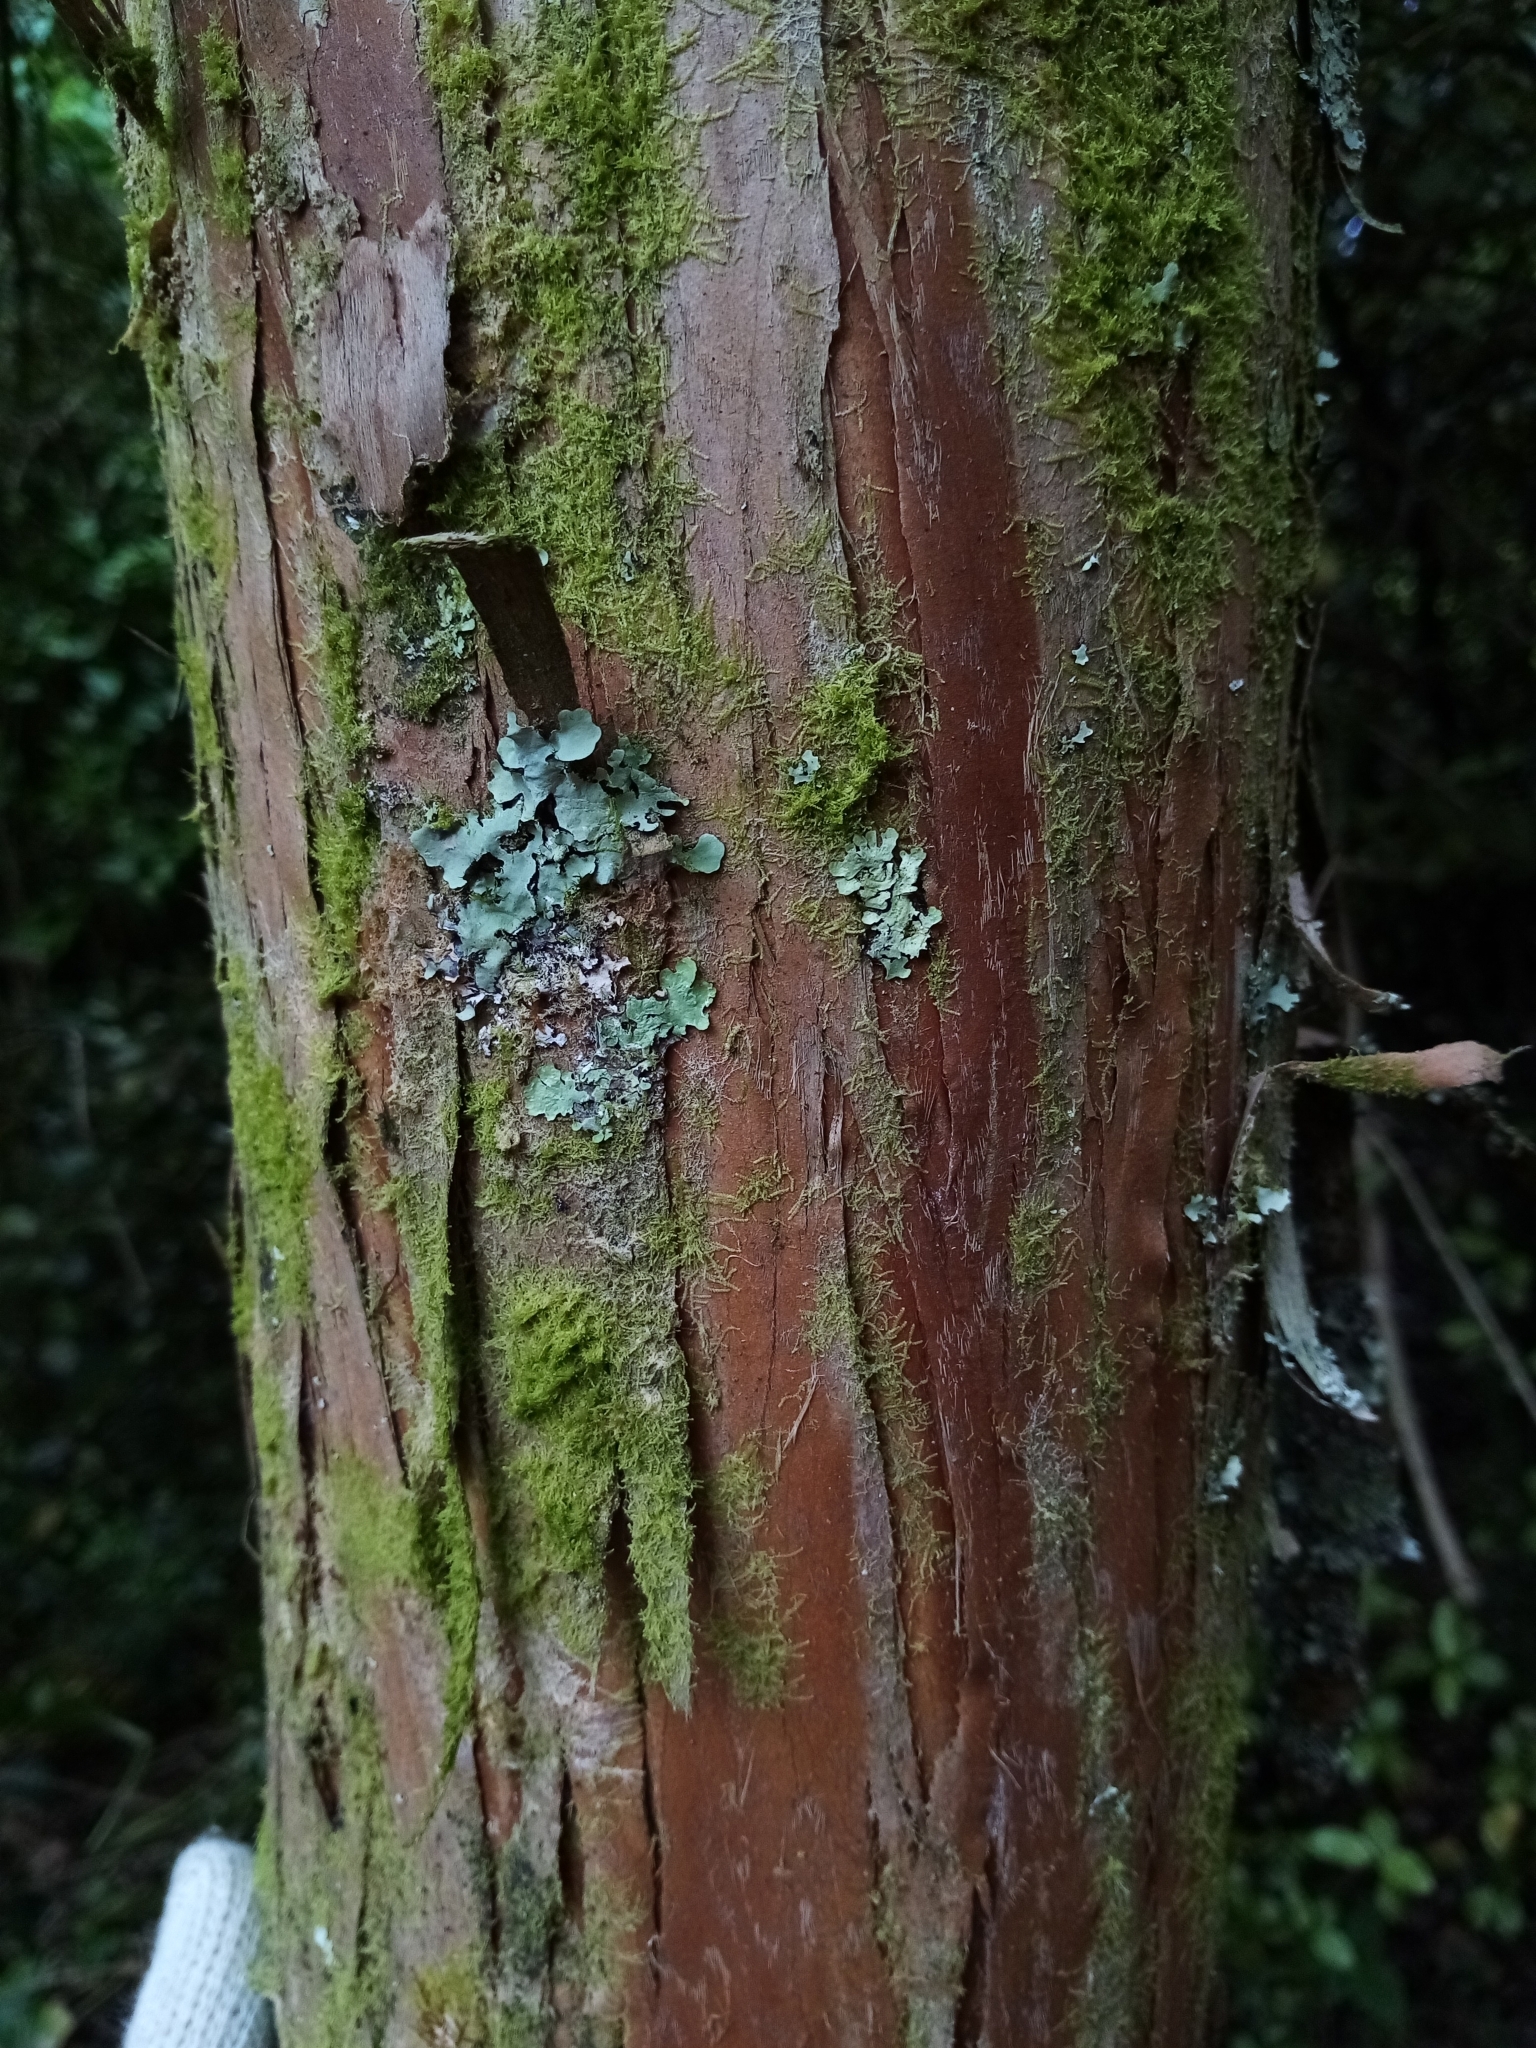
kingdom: Plantae
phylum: Tracheophyta
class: Pinopsida
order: Pinales
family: Podocarpaceae
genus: Podocarpus
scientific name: Podocarpus laetus
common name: Hall's totara
